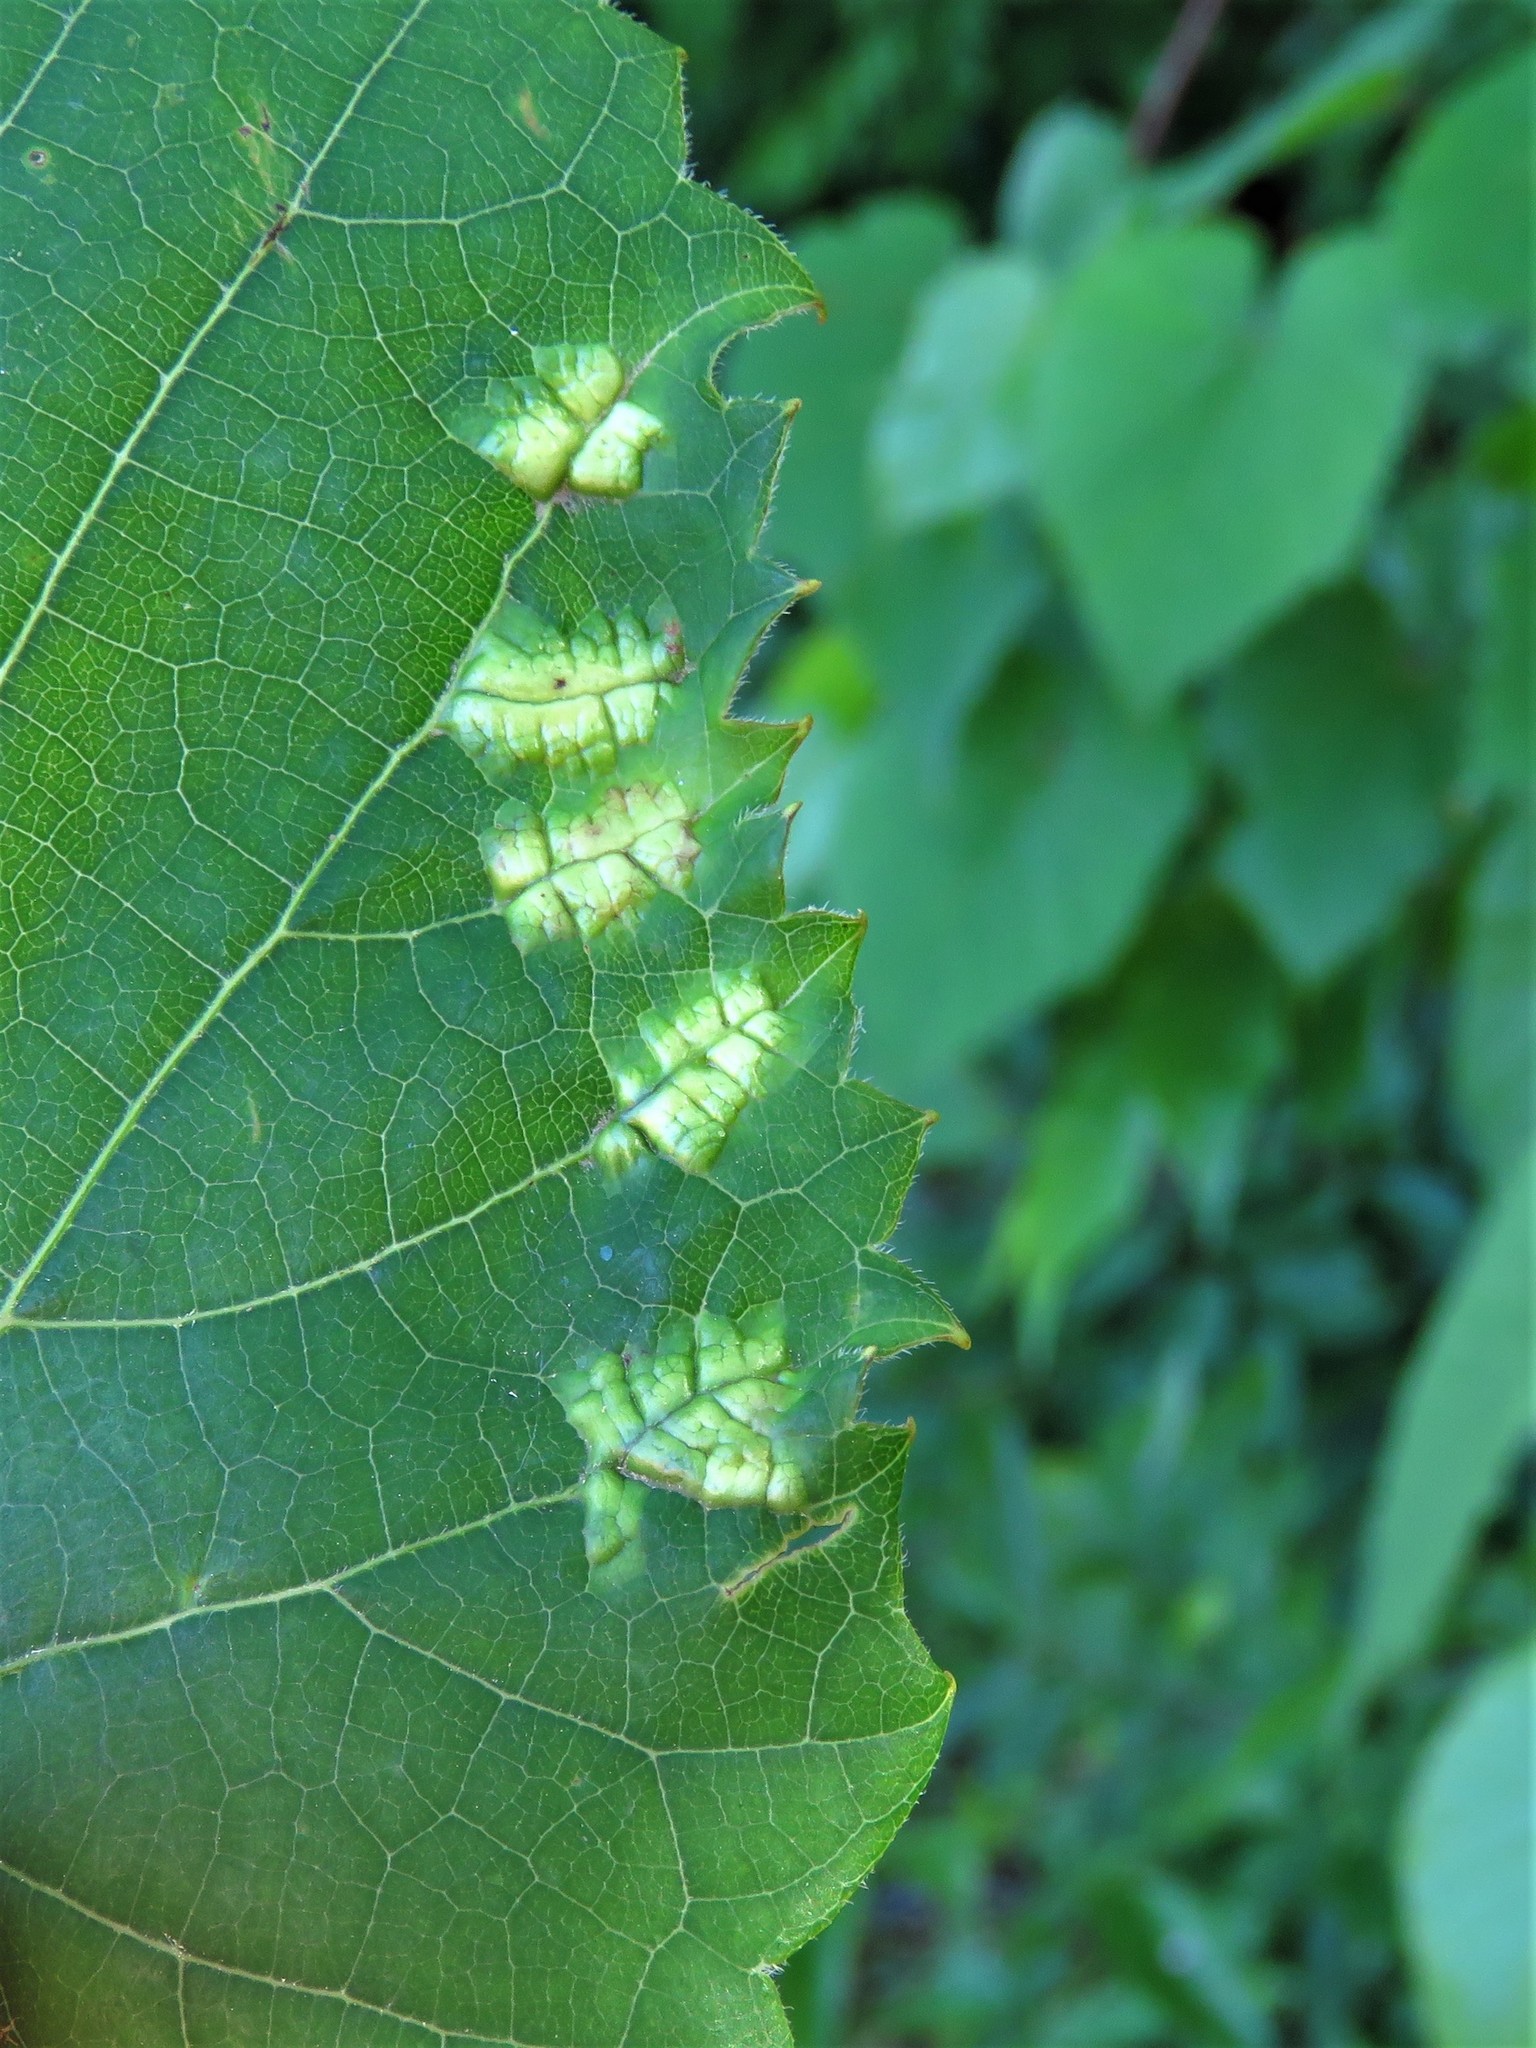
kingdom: Animalia
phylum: Arthropoda
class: Insecta
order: Lepidoptera
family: Heliozelidae
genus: Heliozela
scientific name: Heliozela aesella
